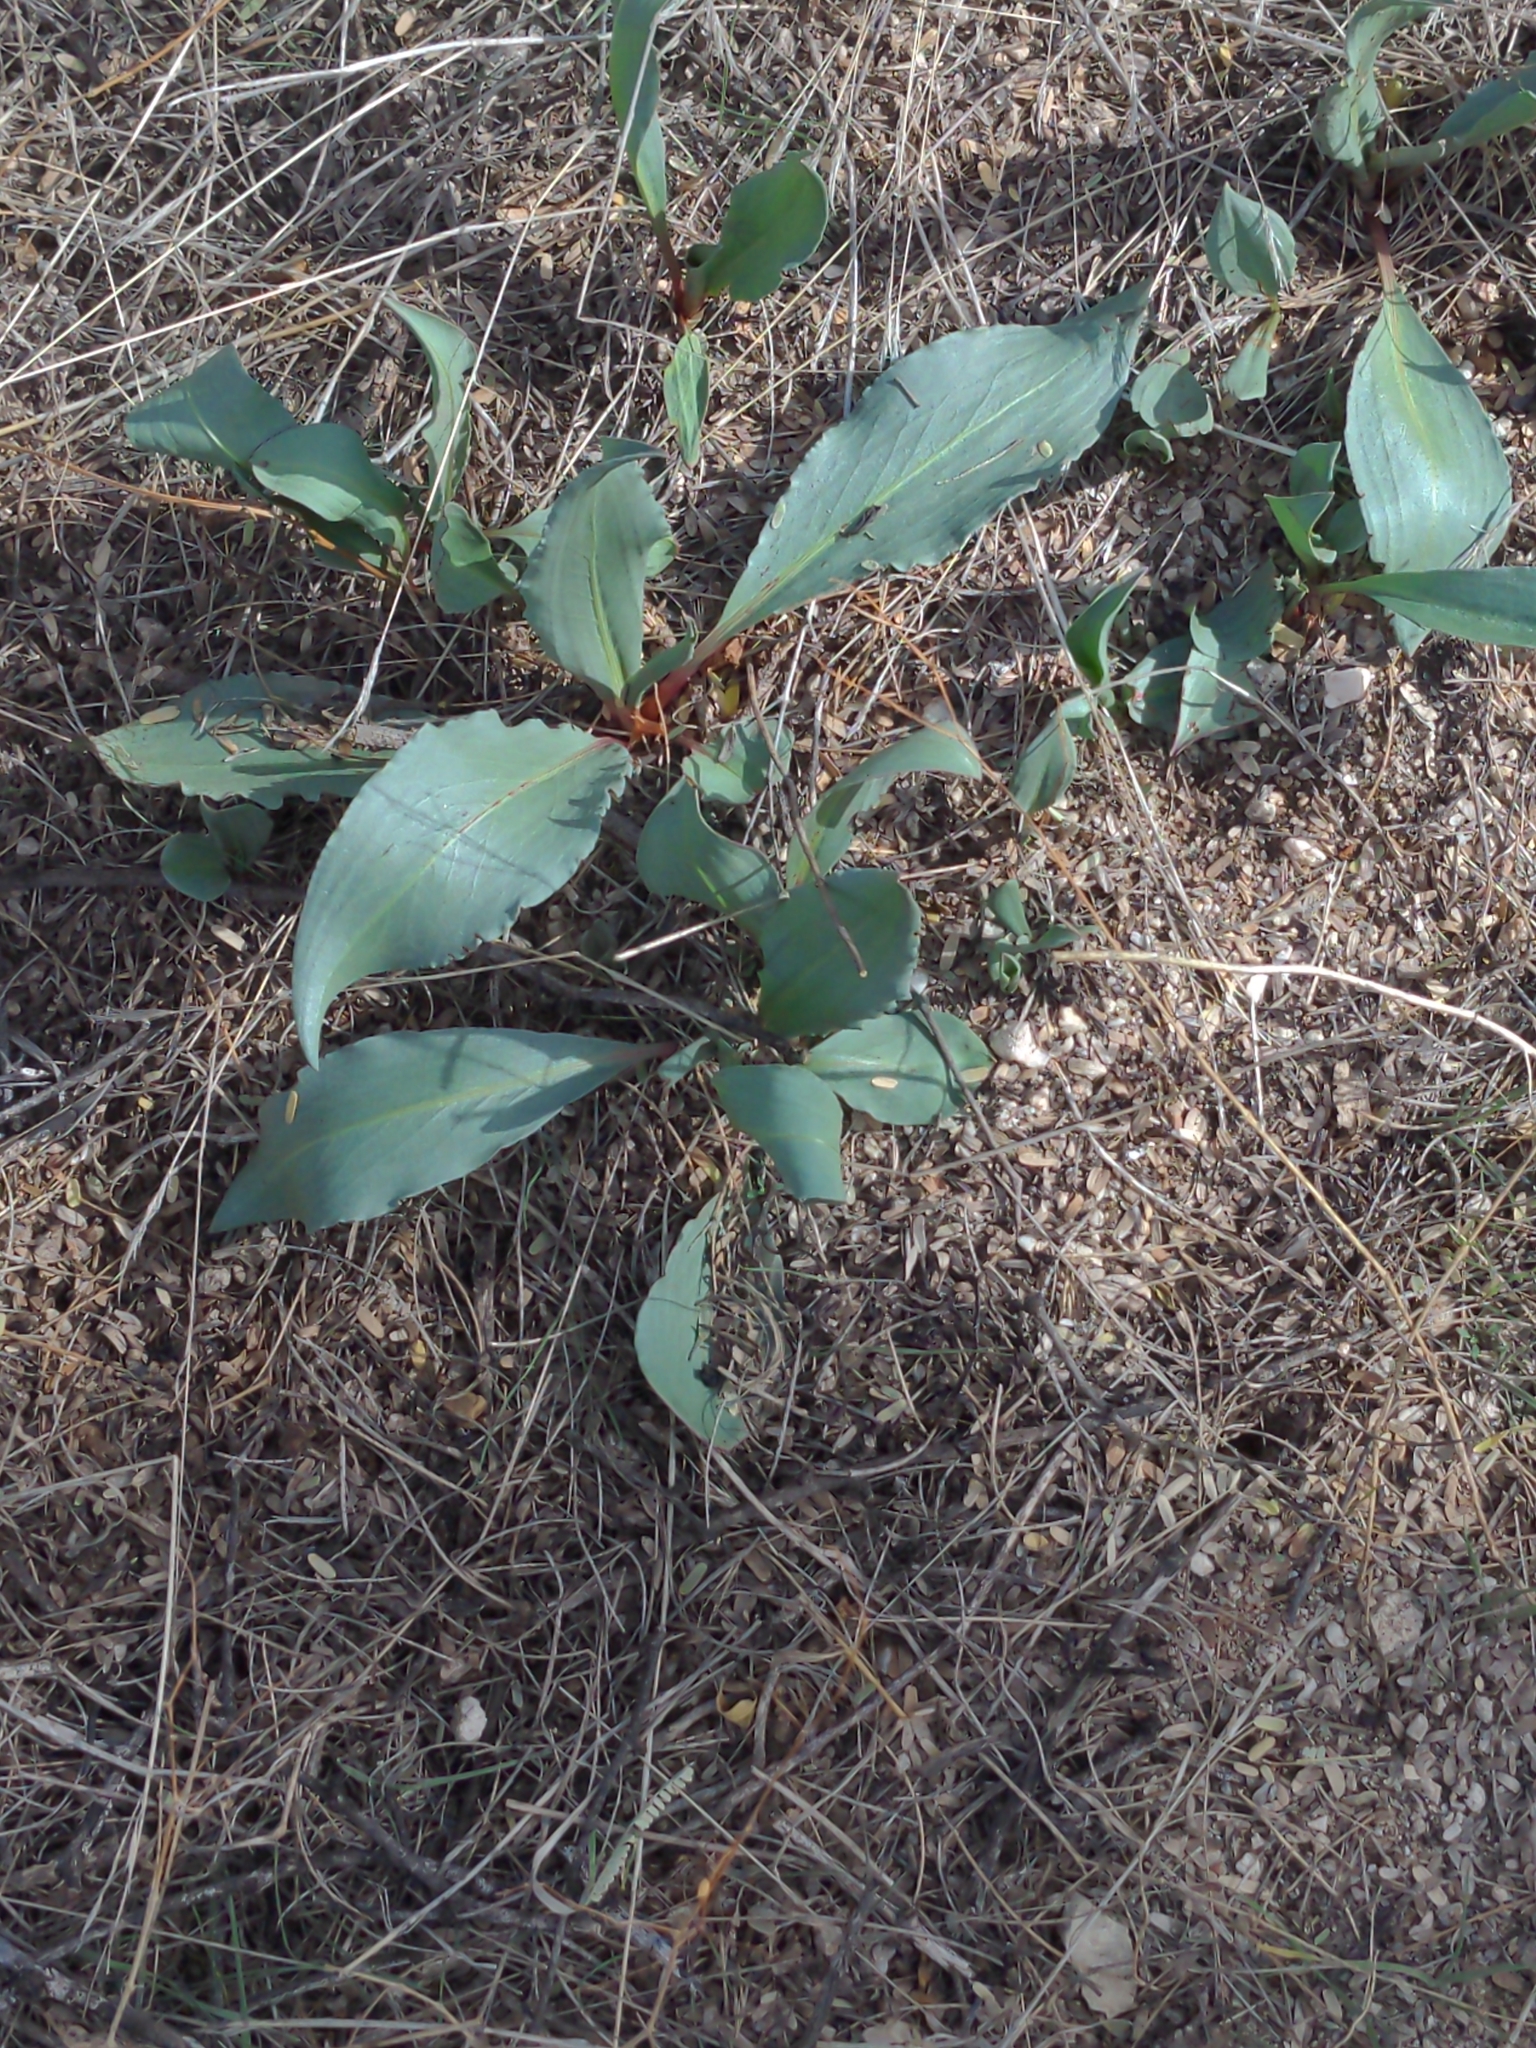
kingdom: Plantae
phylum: Tracheophyta
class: Magnoliopsida
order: Caryophyllales
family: Polygonaceae
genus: Rumex
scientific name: Rumex hymenosepalus
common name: Ganagra
